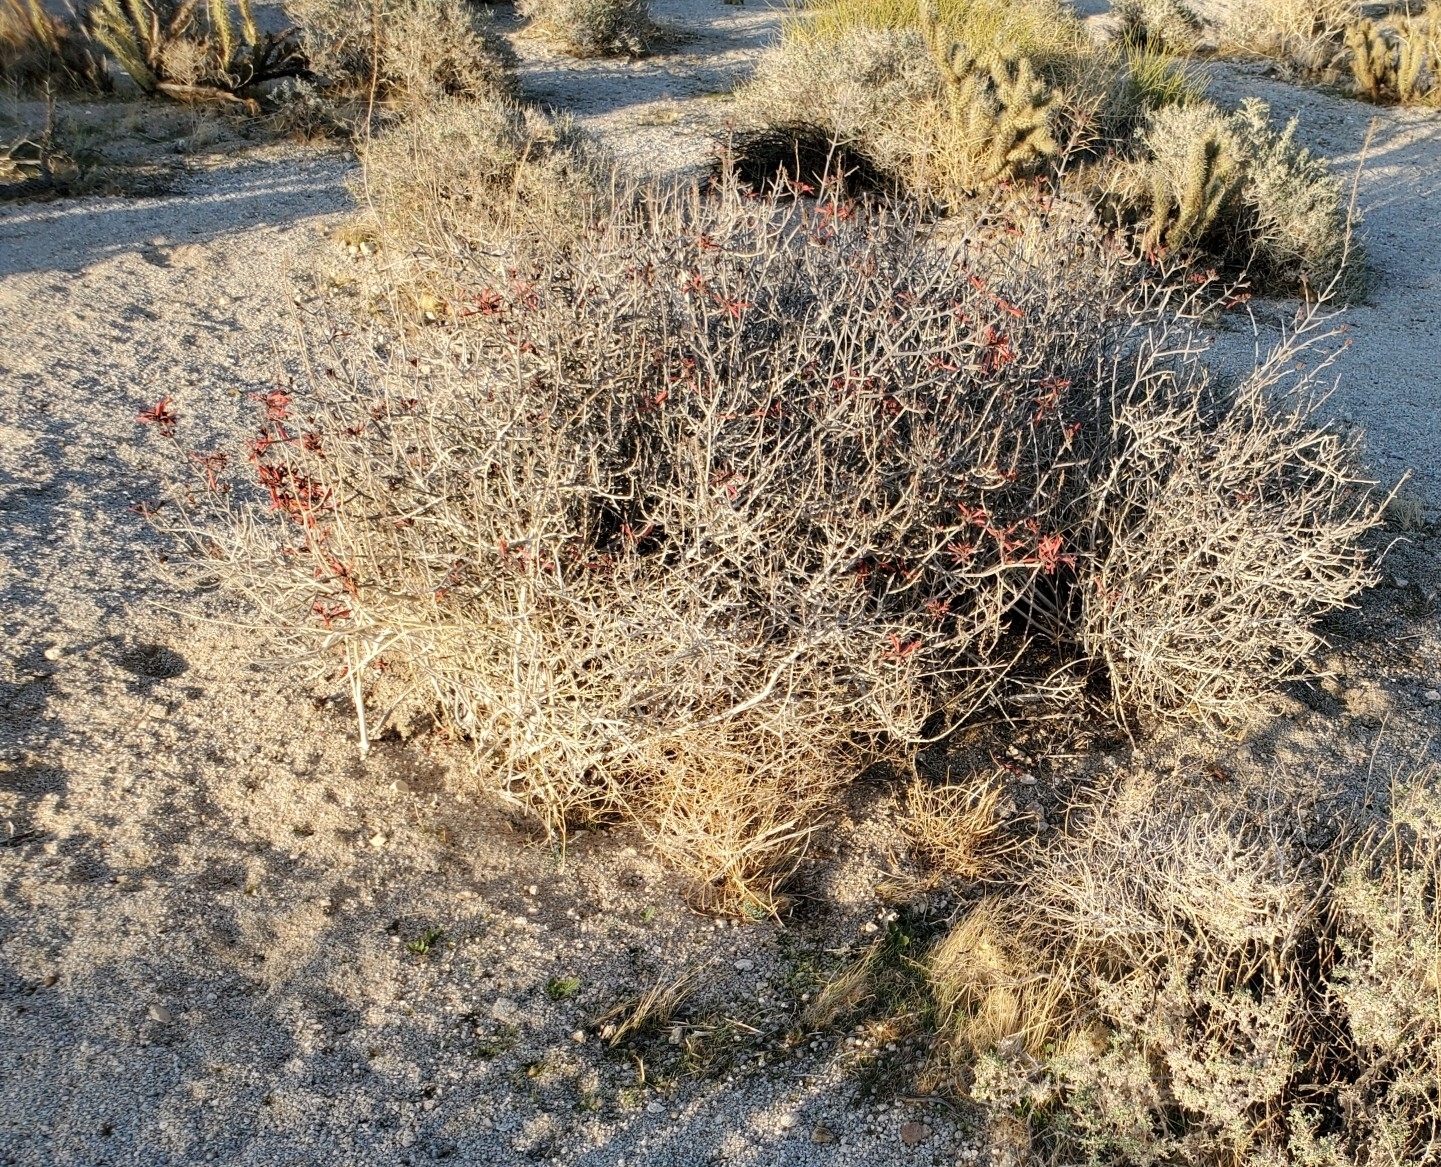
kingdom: Plantae
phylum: Tracheophyta
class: Magnoliopsida
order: Lamiales
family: Acanthaceae
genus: Justicia
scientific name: Justicia californica
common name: Chuparosa-honeysuckle
